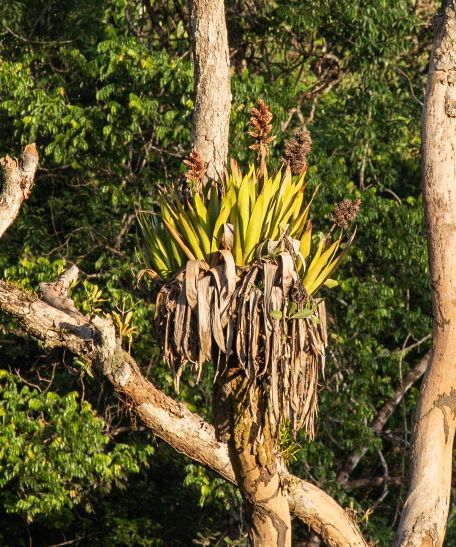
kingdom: Plantae
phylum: Tracheophyta
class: Liliopsida
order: Poales
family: Bromeliaceae
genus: Aechmea
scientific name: Aechmea polyantha
